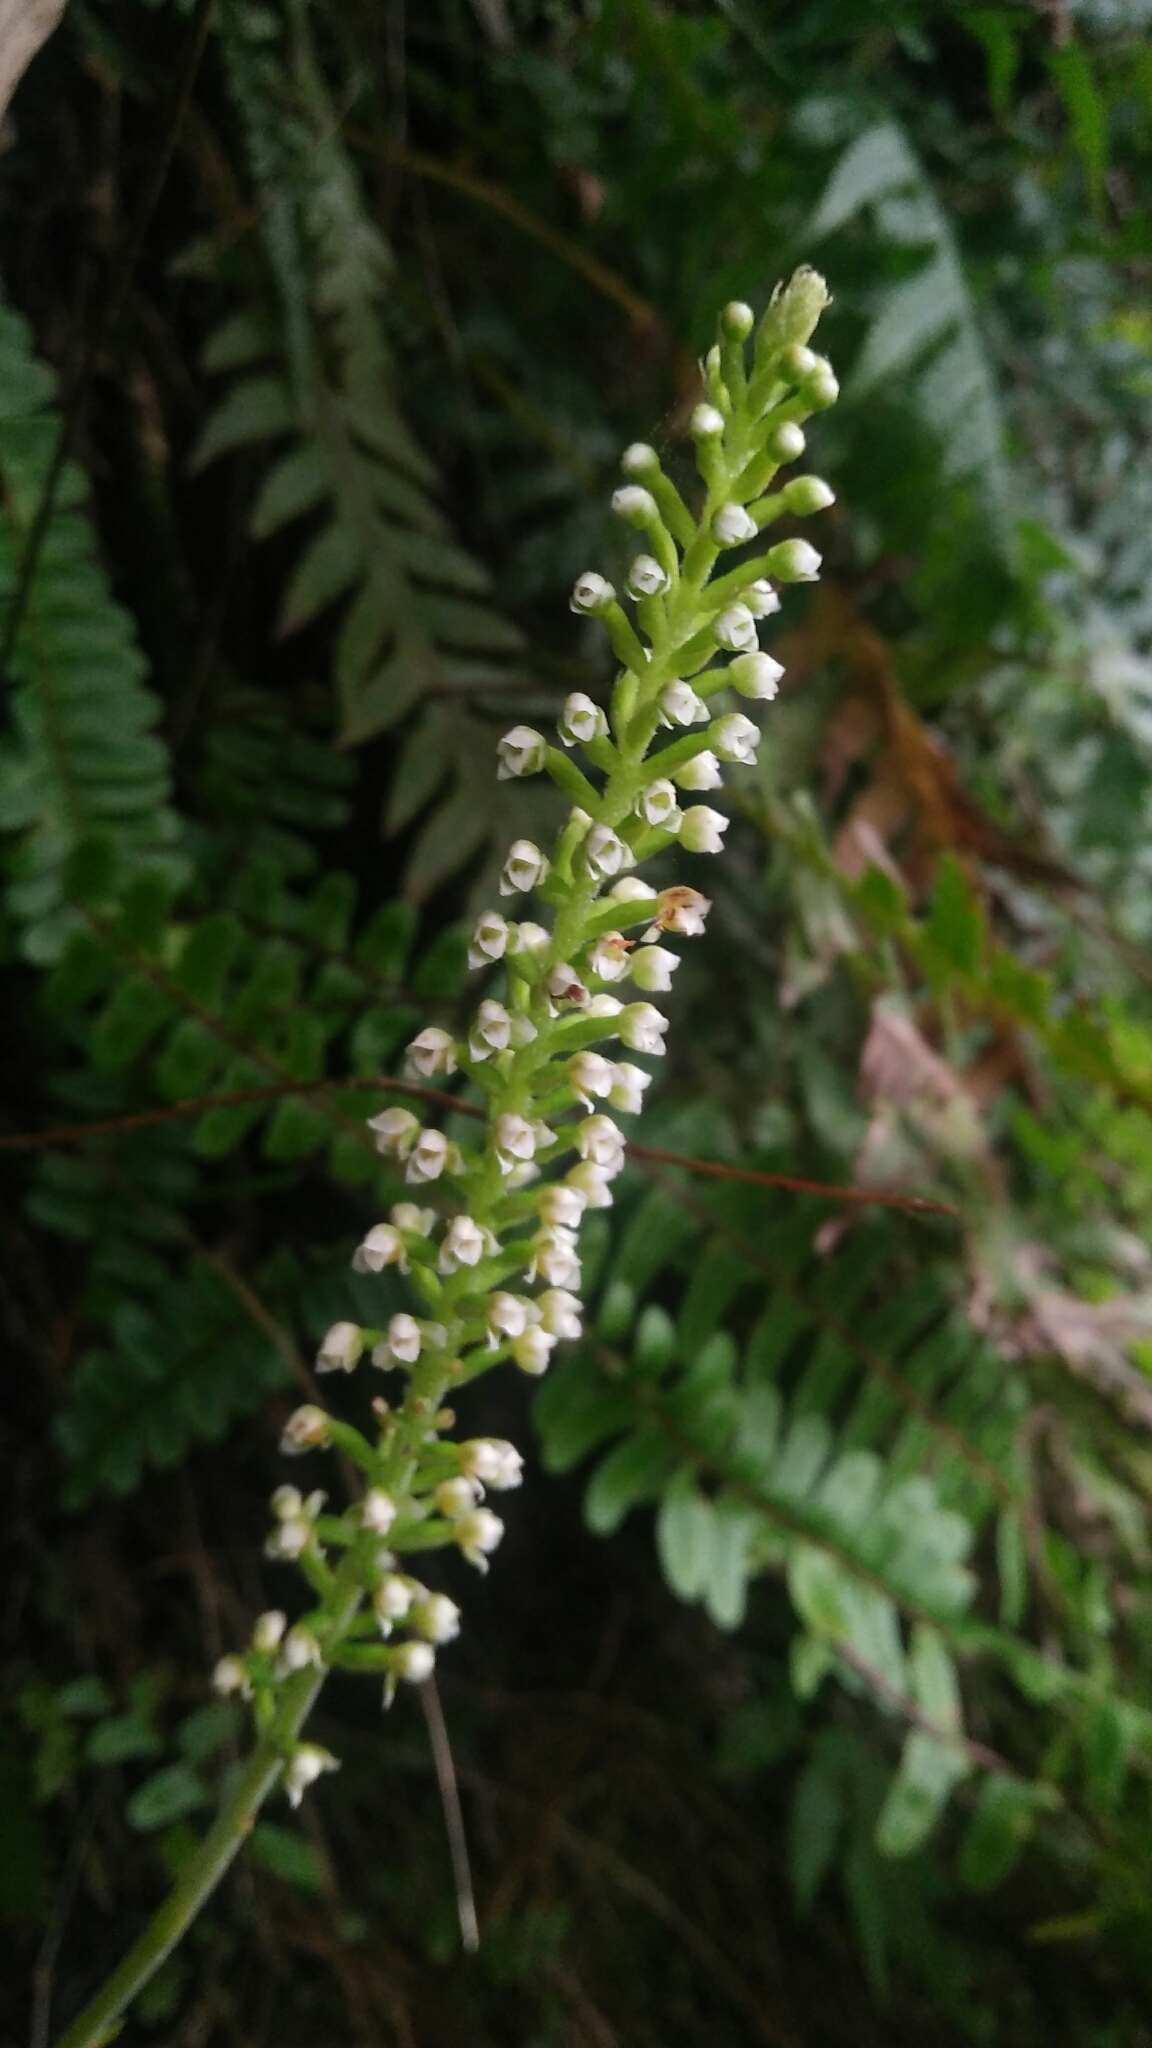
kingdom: Plantae
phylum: Tracheophyta
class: Liliopsida
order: Asparagales
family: Orchidaceae
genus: Goodyera
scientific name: Goodyera procera
